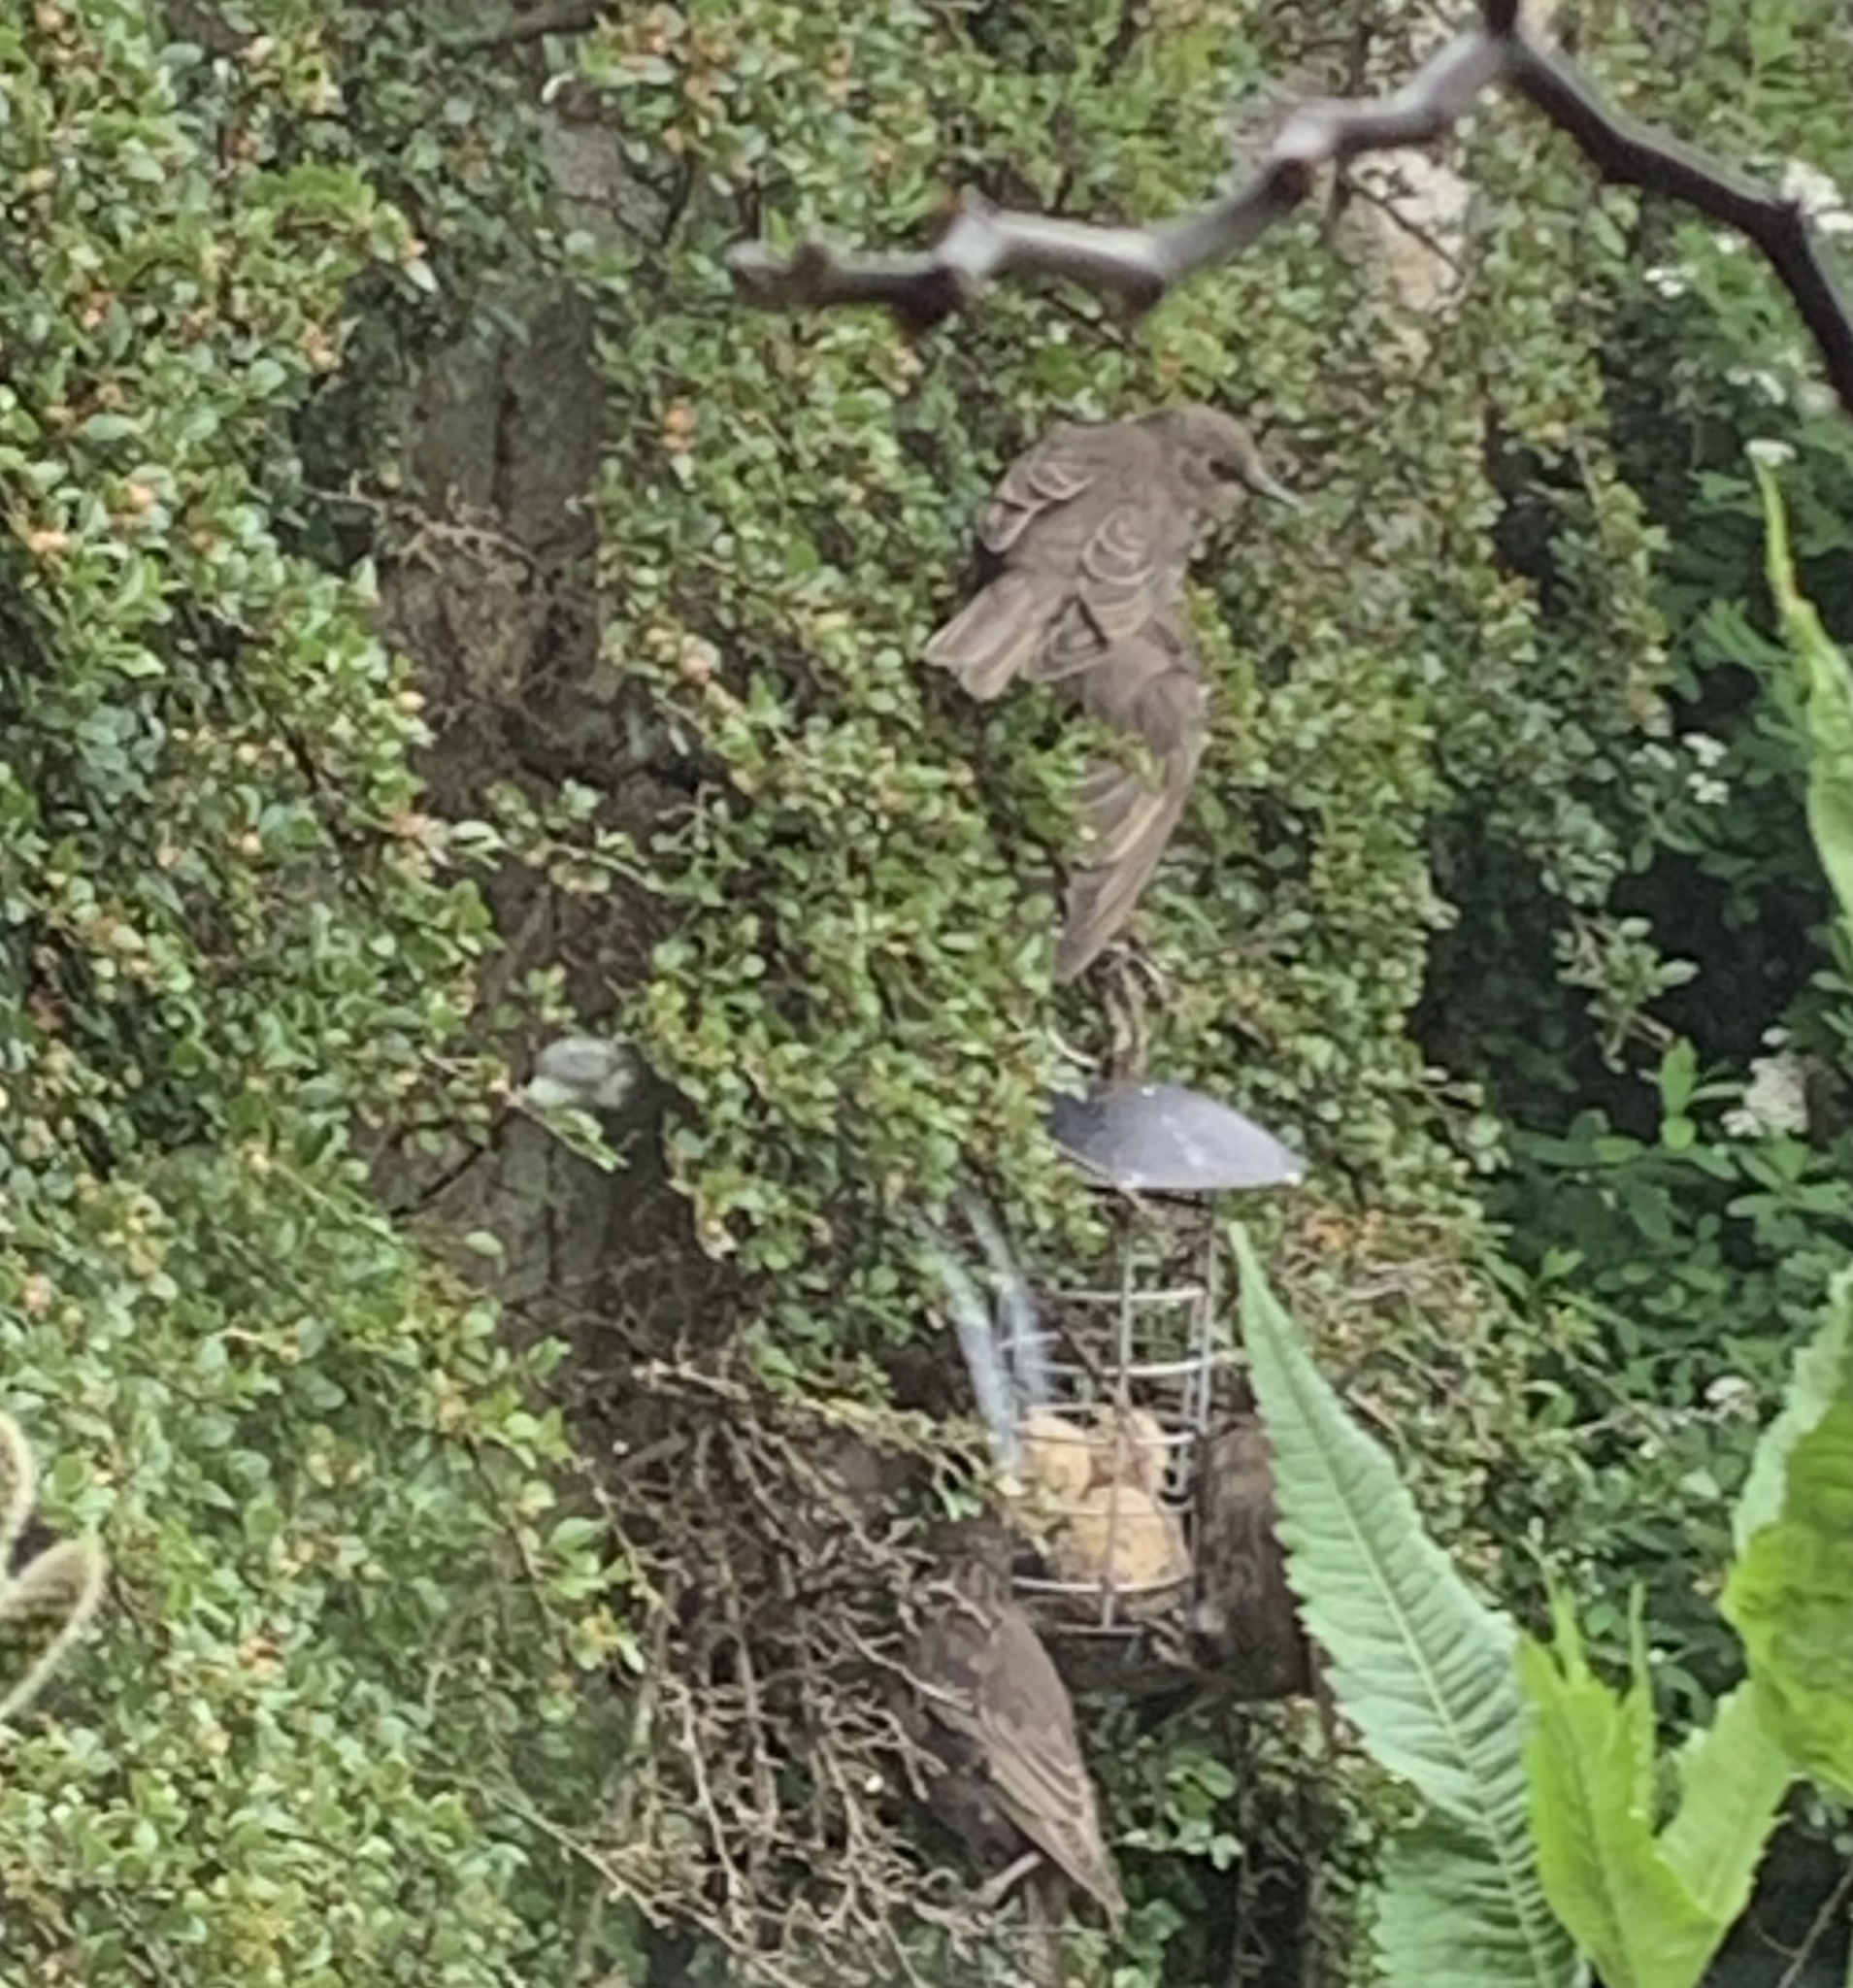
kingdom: Animalia
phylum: Chordata
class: Aves
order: Passeriformes
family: Sturnidae
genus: Sturnus
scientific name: Sturnus vulgaris
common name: Common starling
